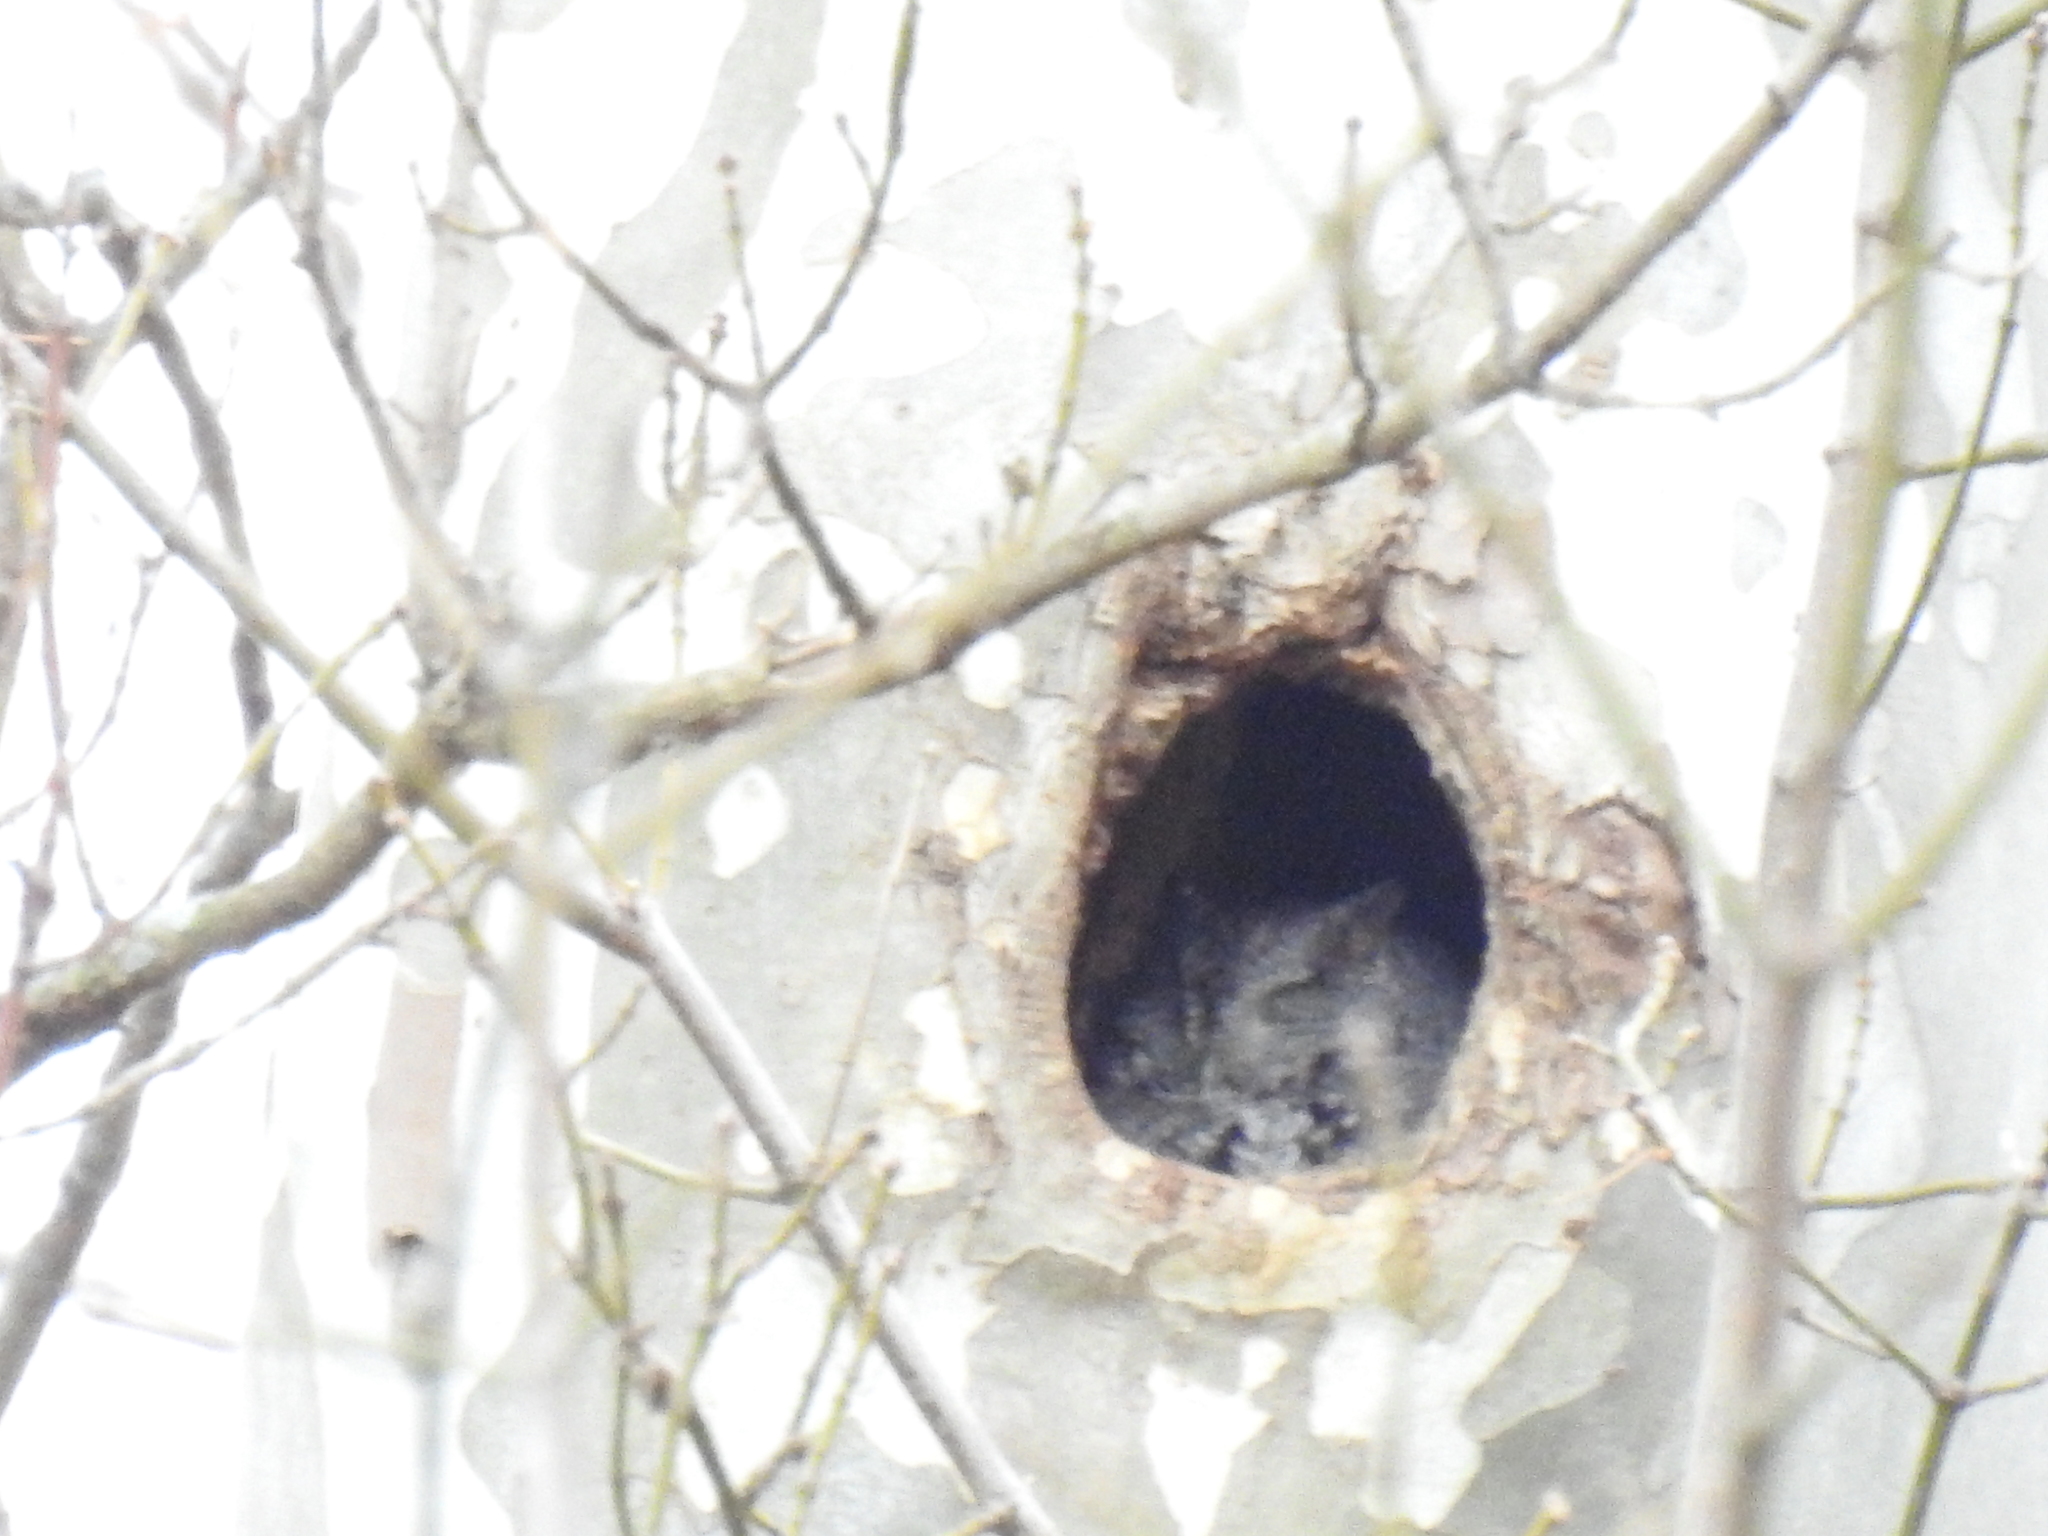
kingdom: Animalia
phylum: Chordata
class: Aves
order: Strigiformes
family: Strigidae
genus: Megascops
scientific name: Megascops asio
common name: Eastern screech-owl
